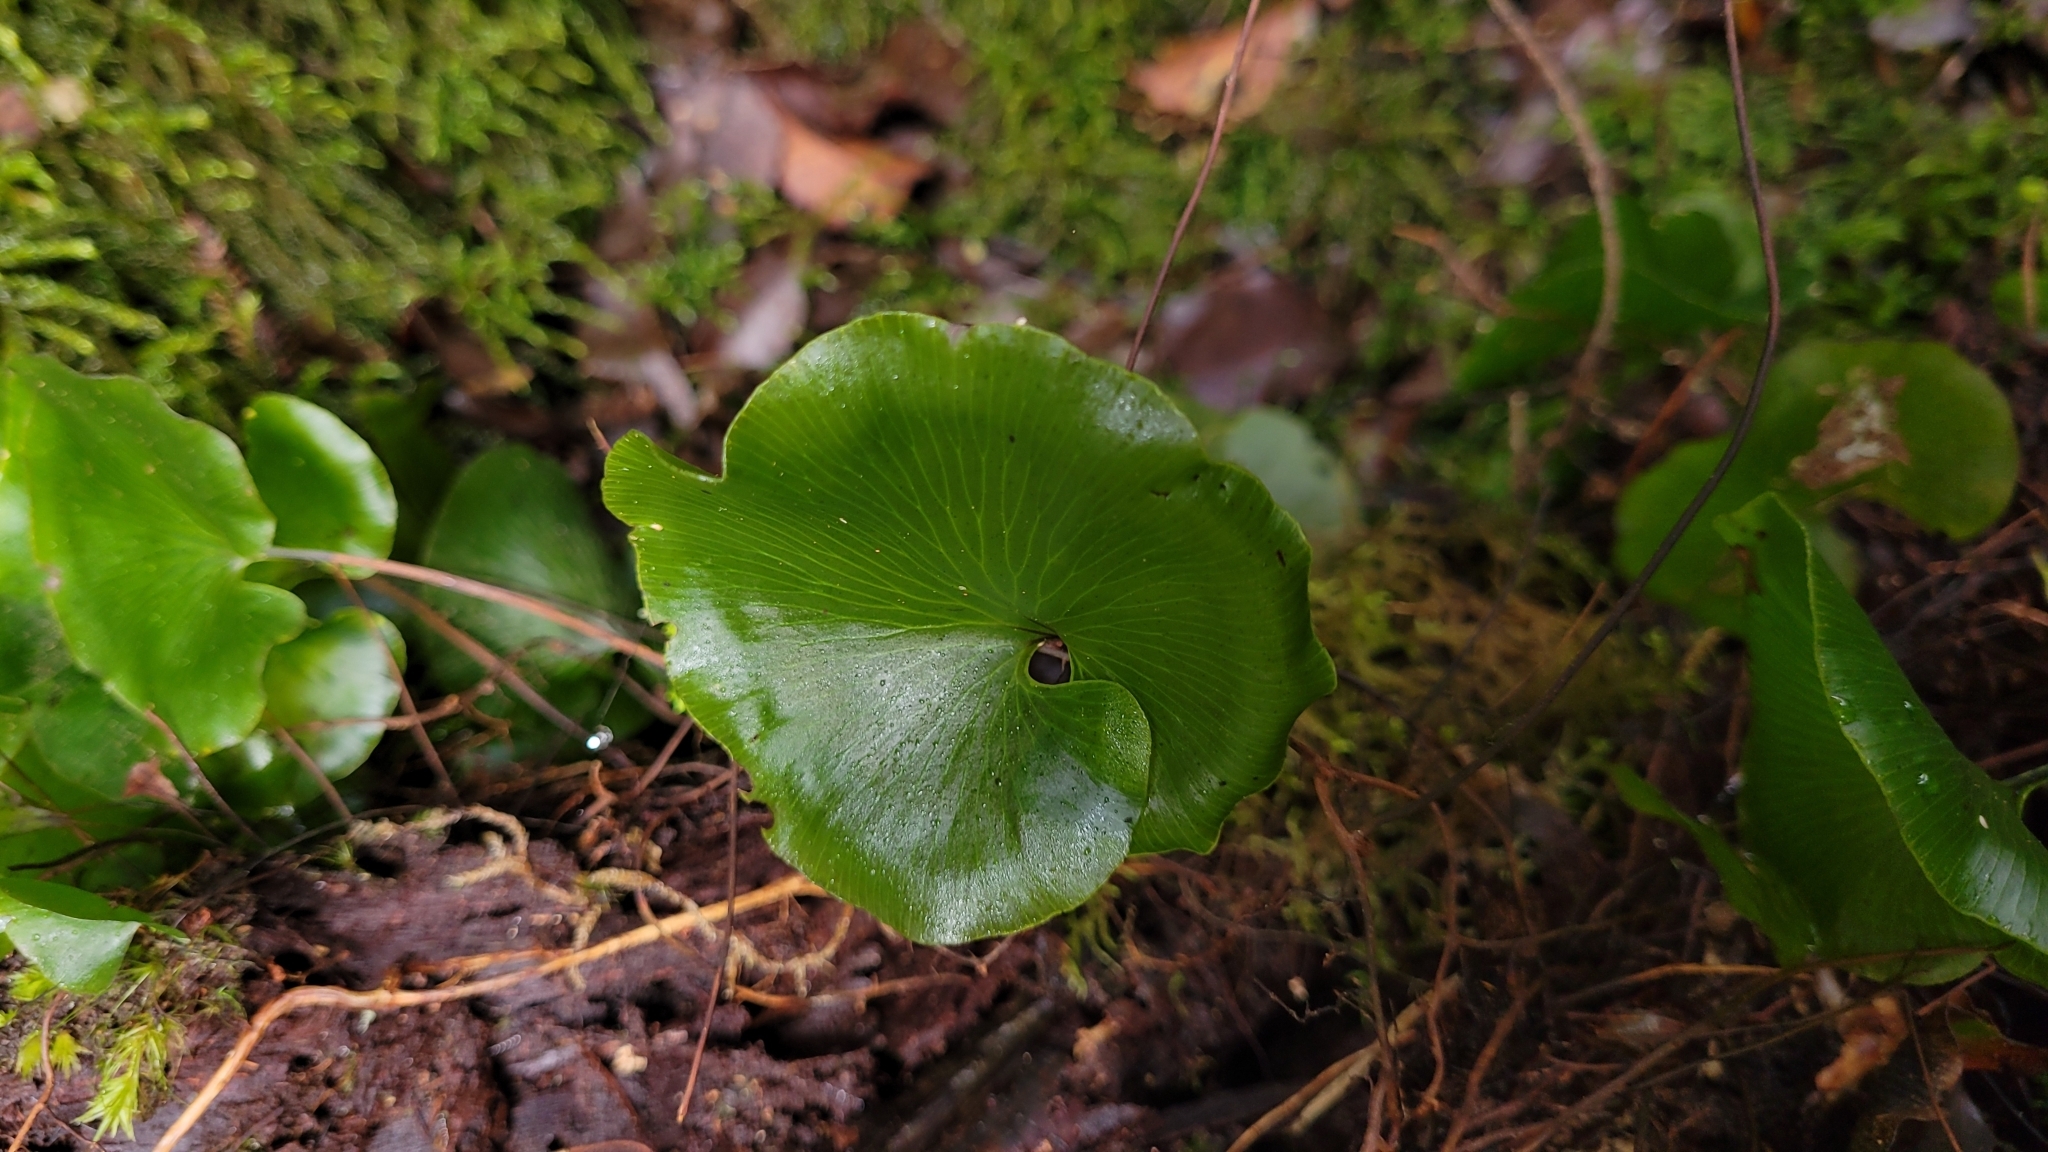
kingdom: Plantae
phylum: Tracheophyta
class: Polypodiopsida
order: Hymenophyllales
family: Hymenophyllaceae
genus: Hymenophyllum
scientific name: Hymenophyllum nephrophyllum
